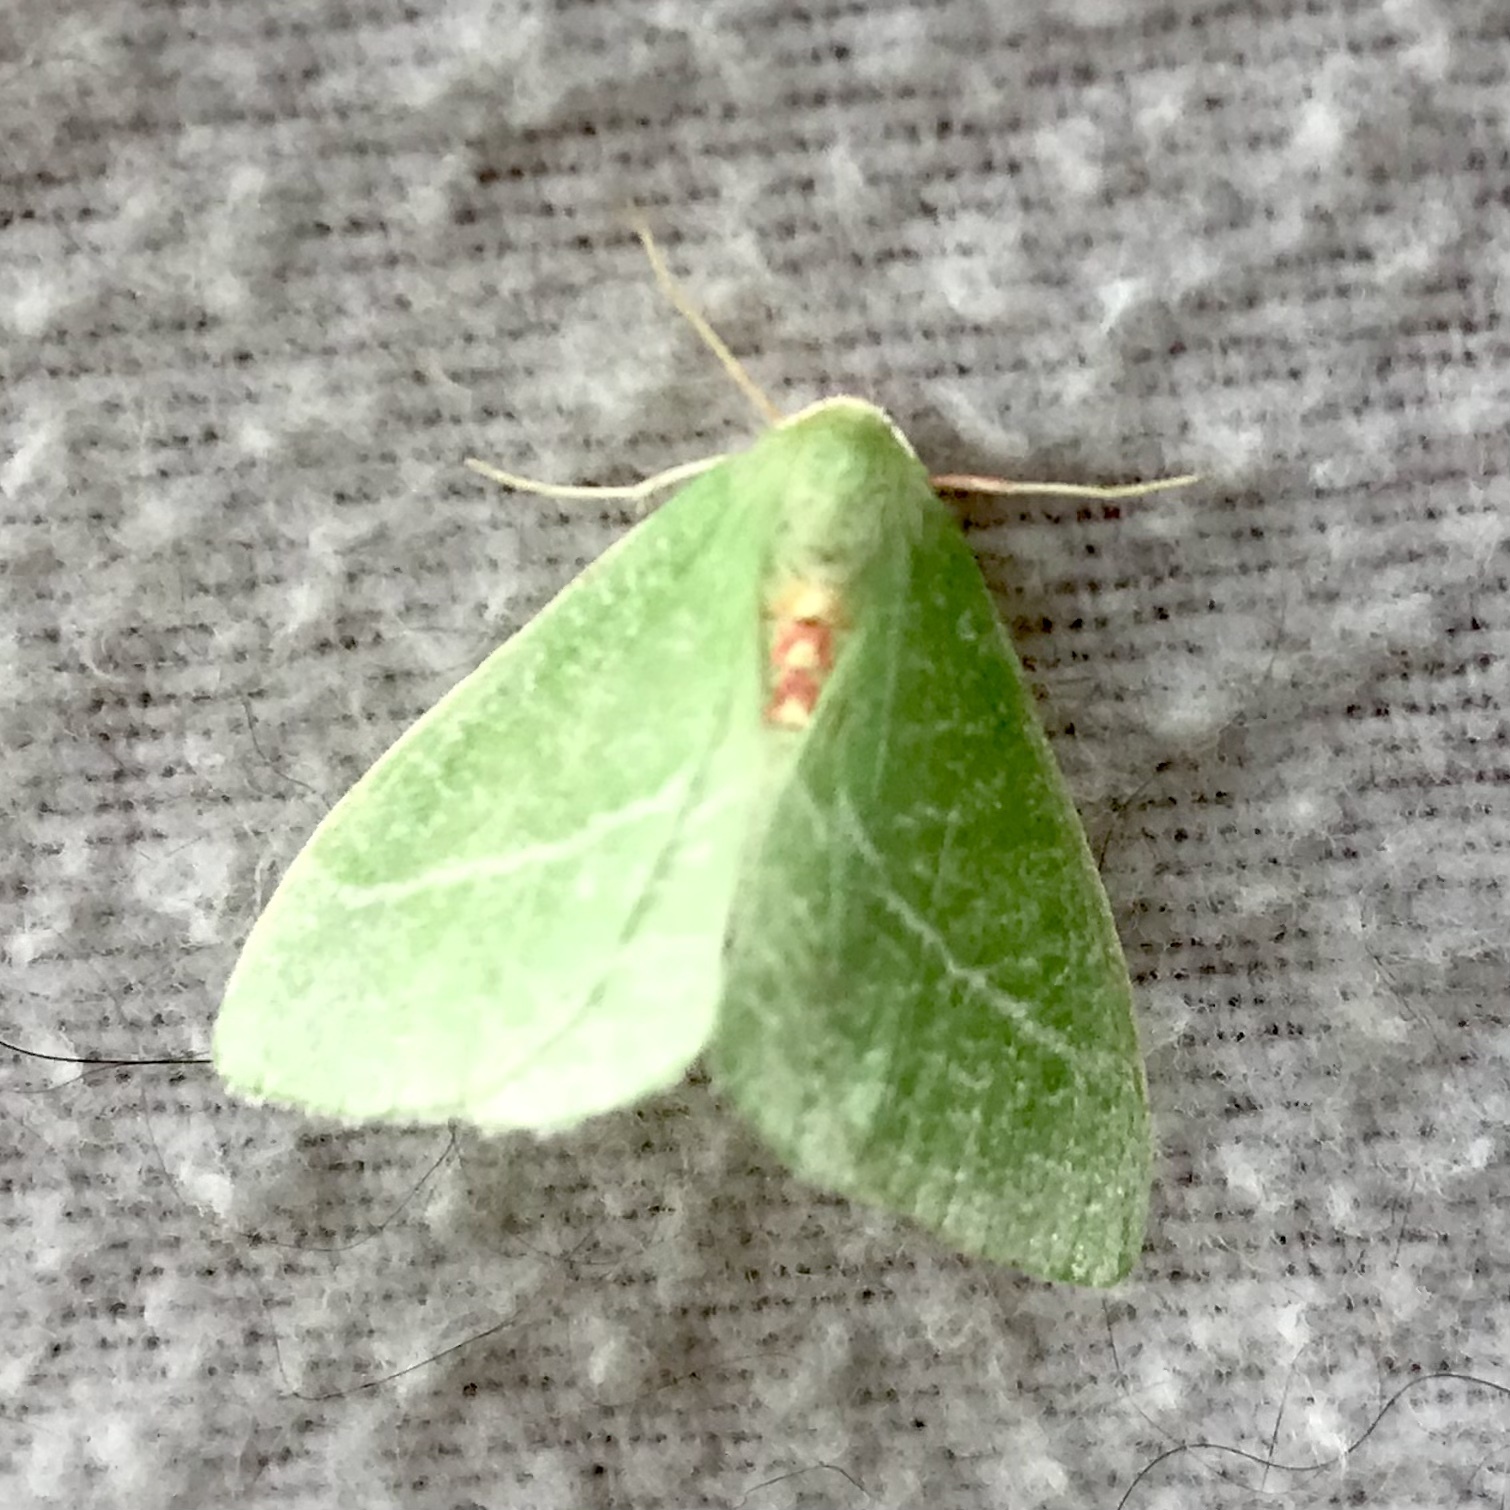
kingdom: Animalia
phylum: Arthropoda
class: Insecta
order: Lepidoptera
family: Geometridae
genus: Chlorosea
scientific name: Chlorosea banksaria
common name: Bank's emerald moth
